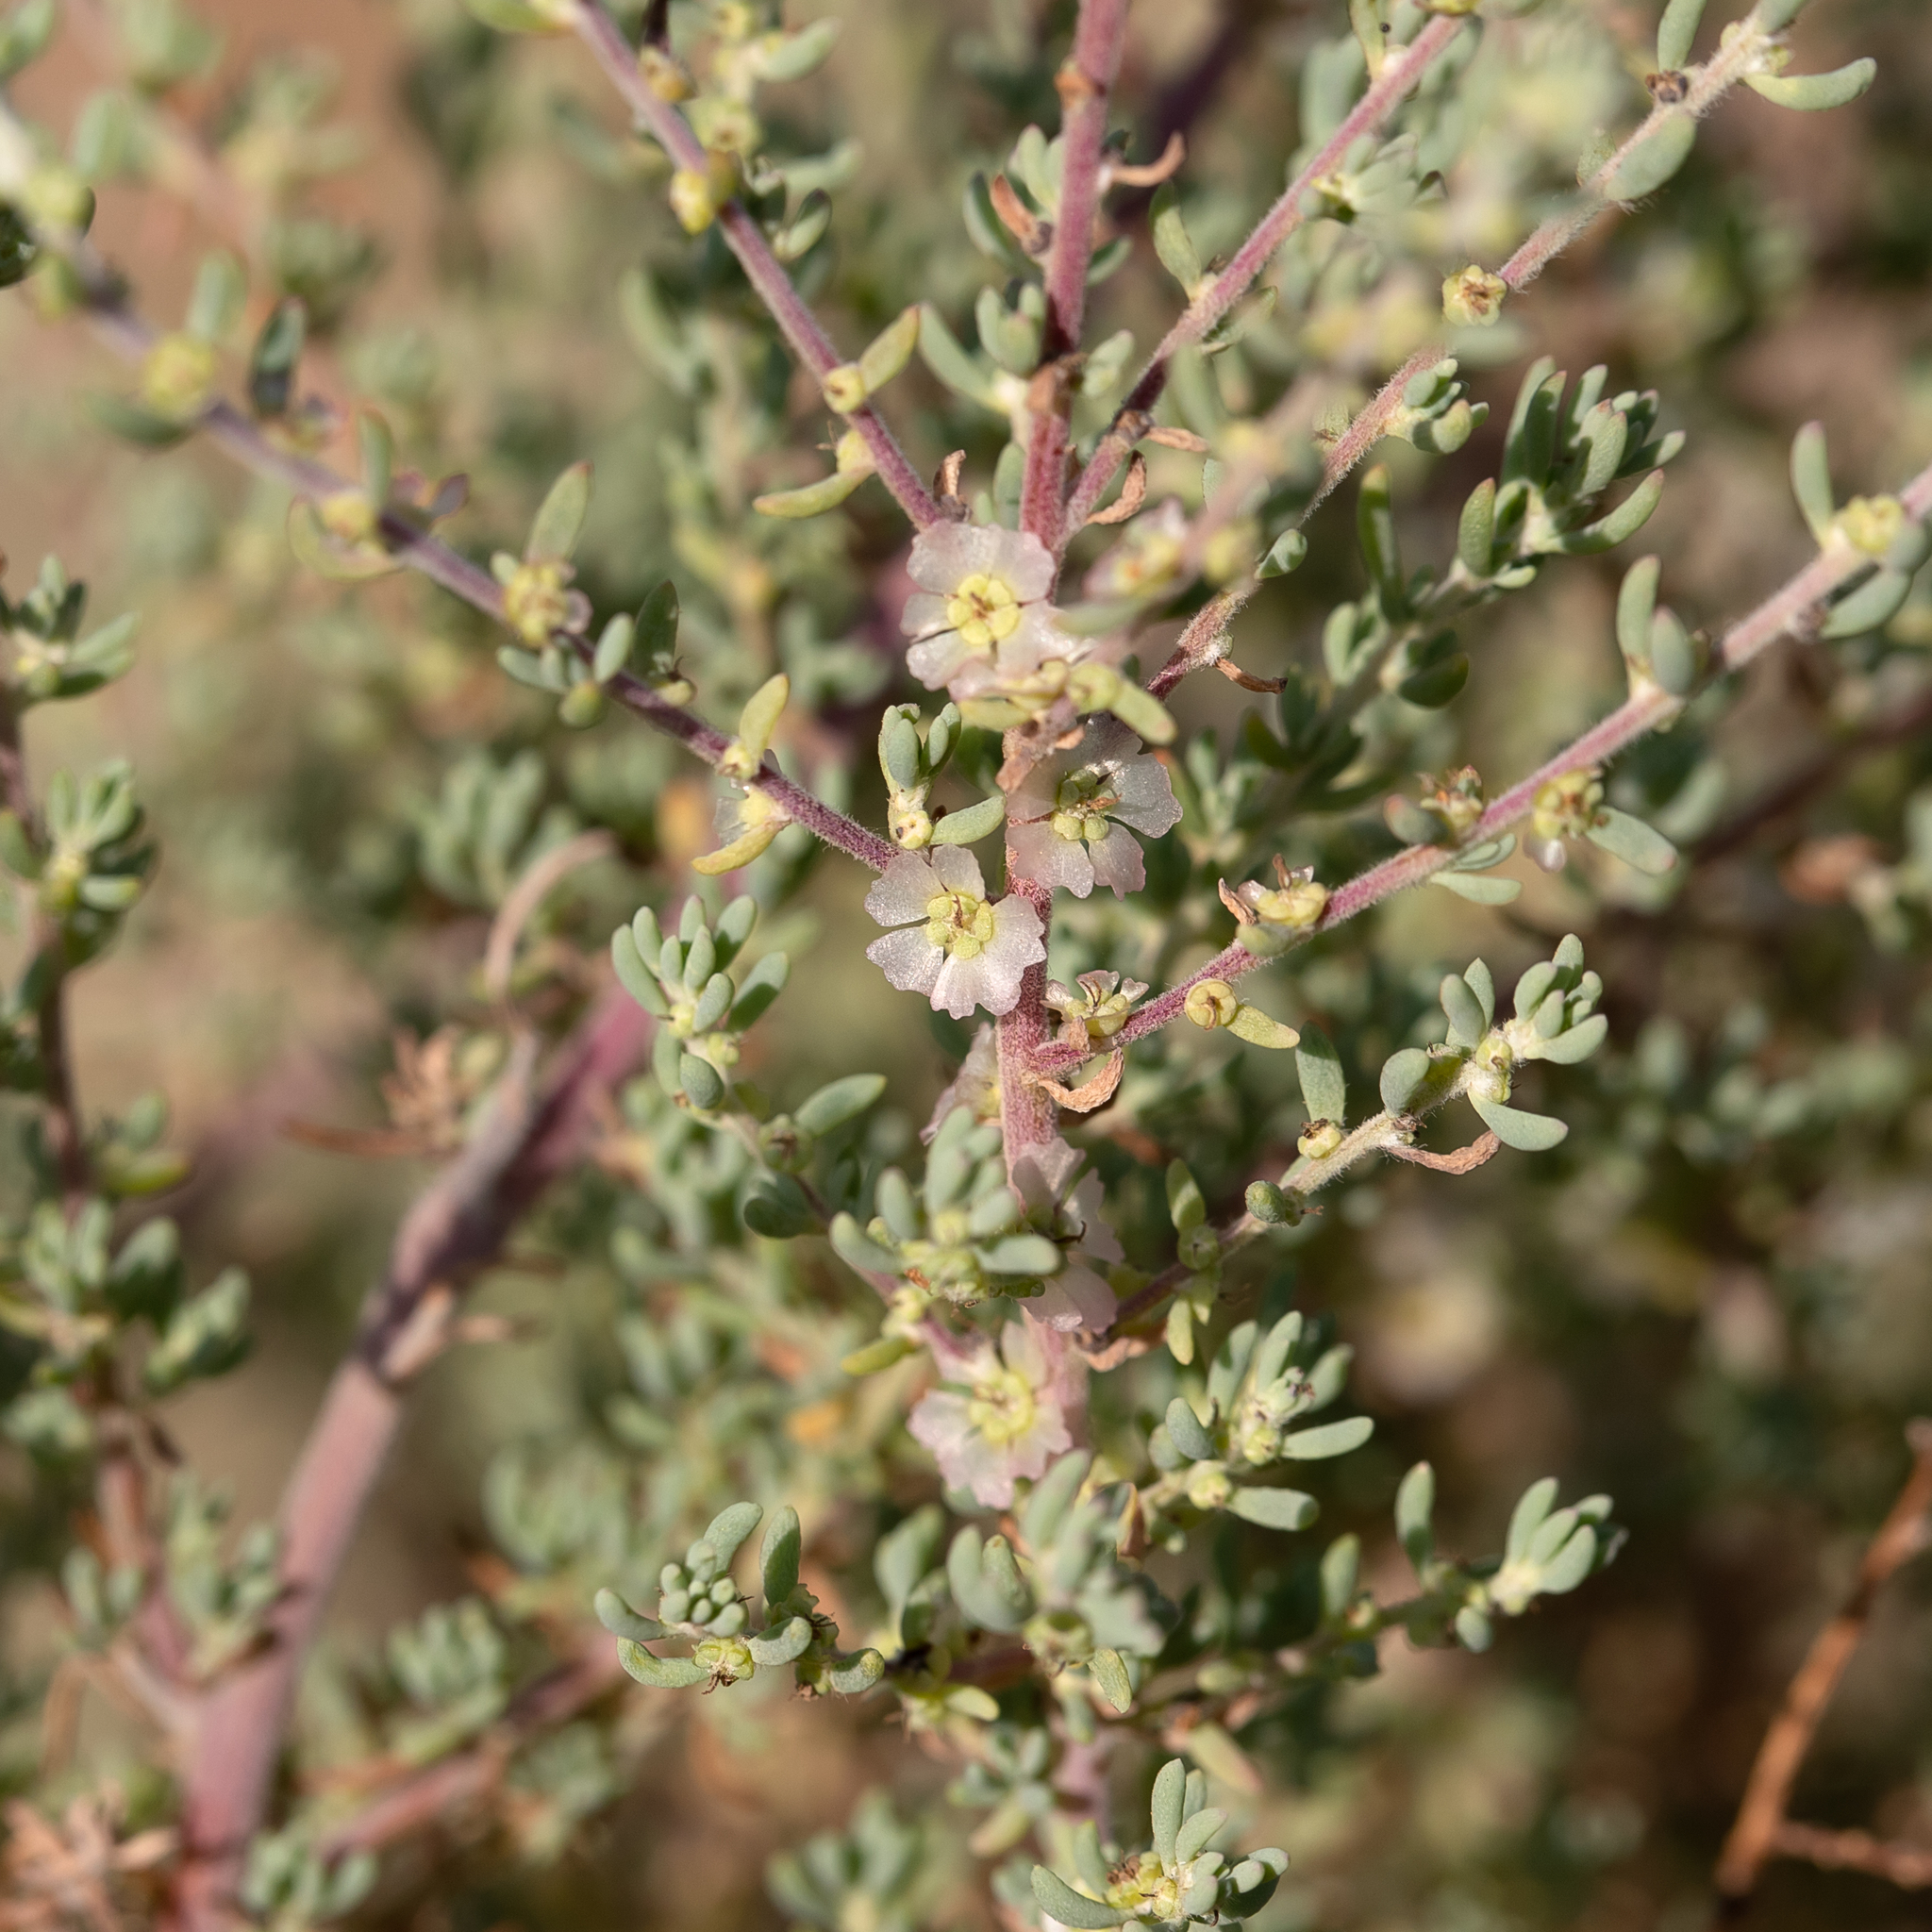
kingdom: Plantae
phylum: Tracheophyta
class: Magnoliopsida
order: Caryophyllales
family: Amaranthaceae
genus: Maireana
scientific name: Maireana brevifolia
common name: Eastern cottonbush
